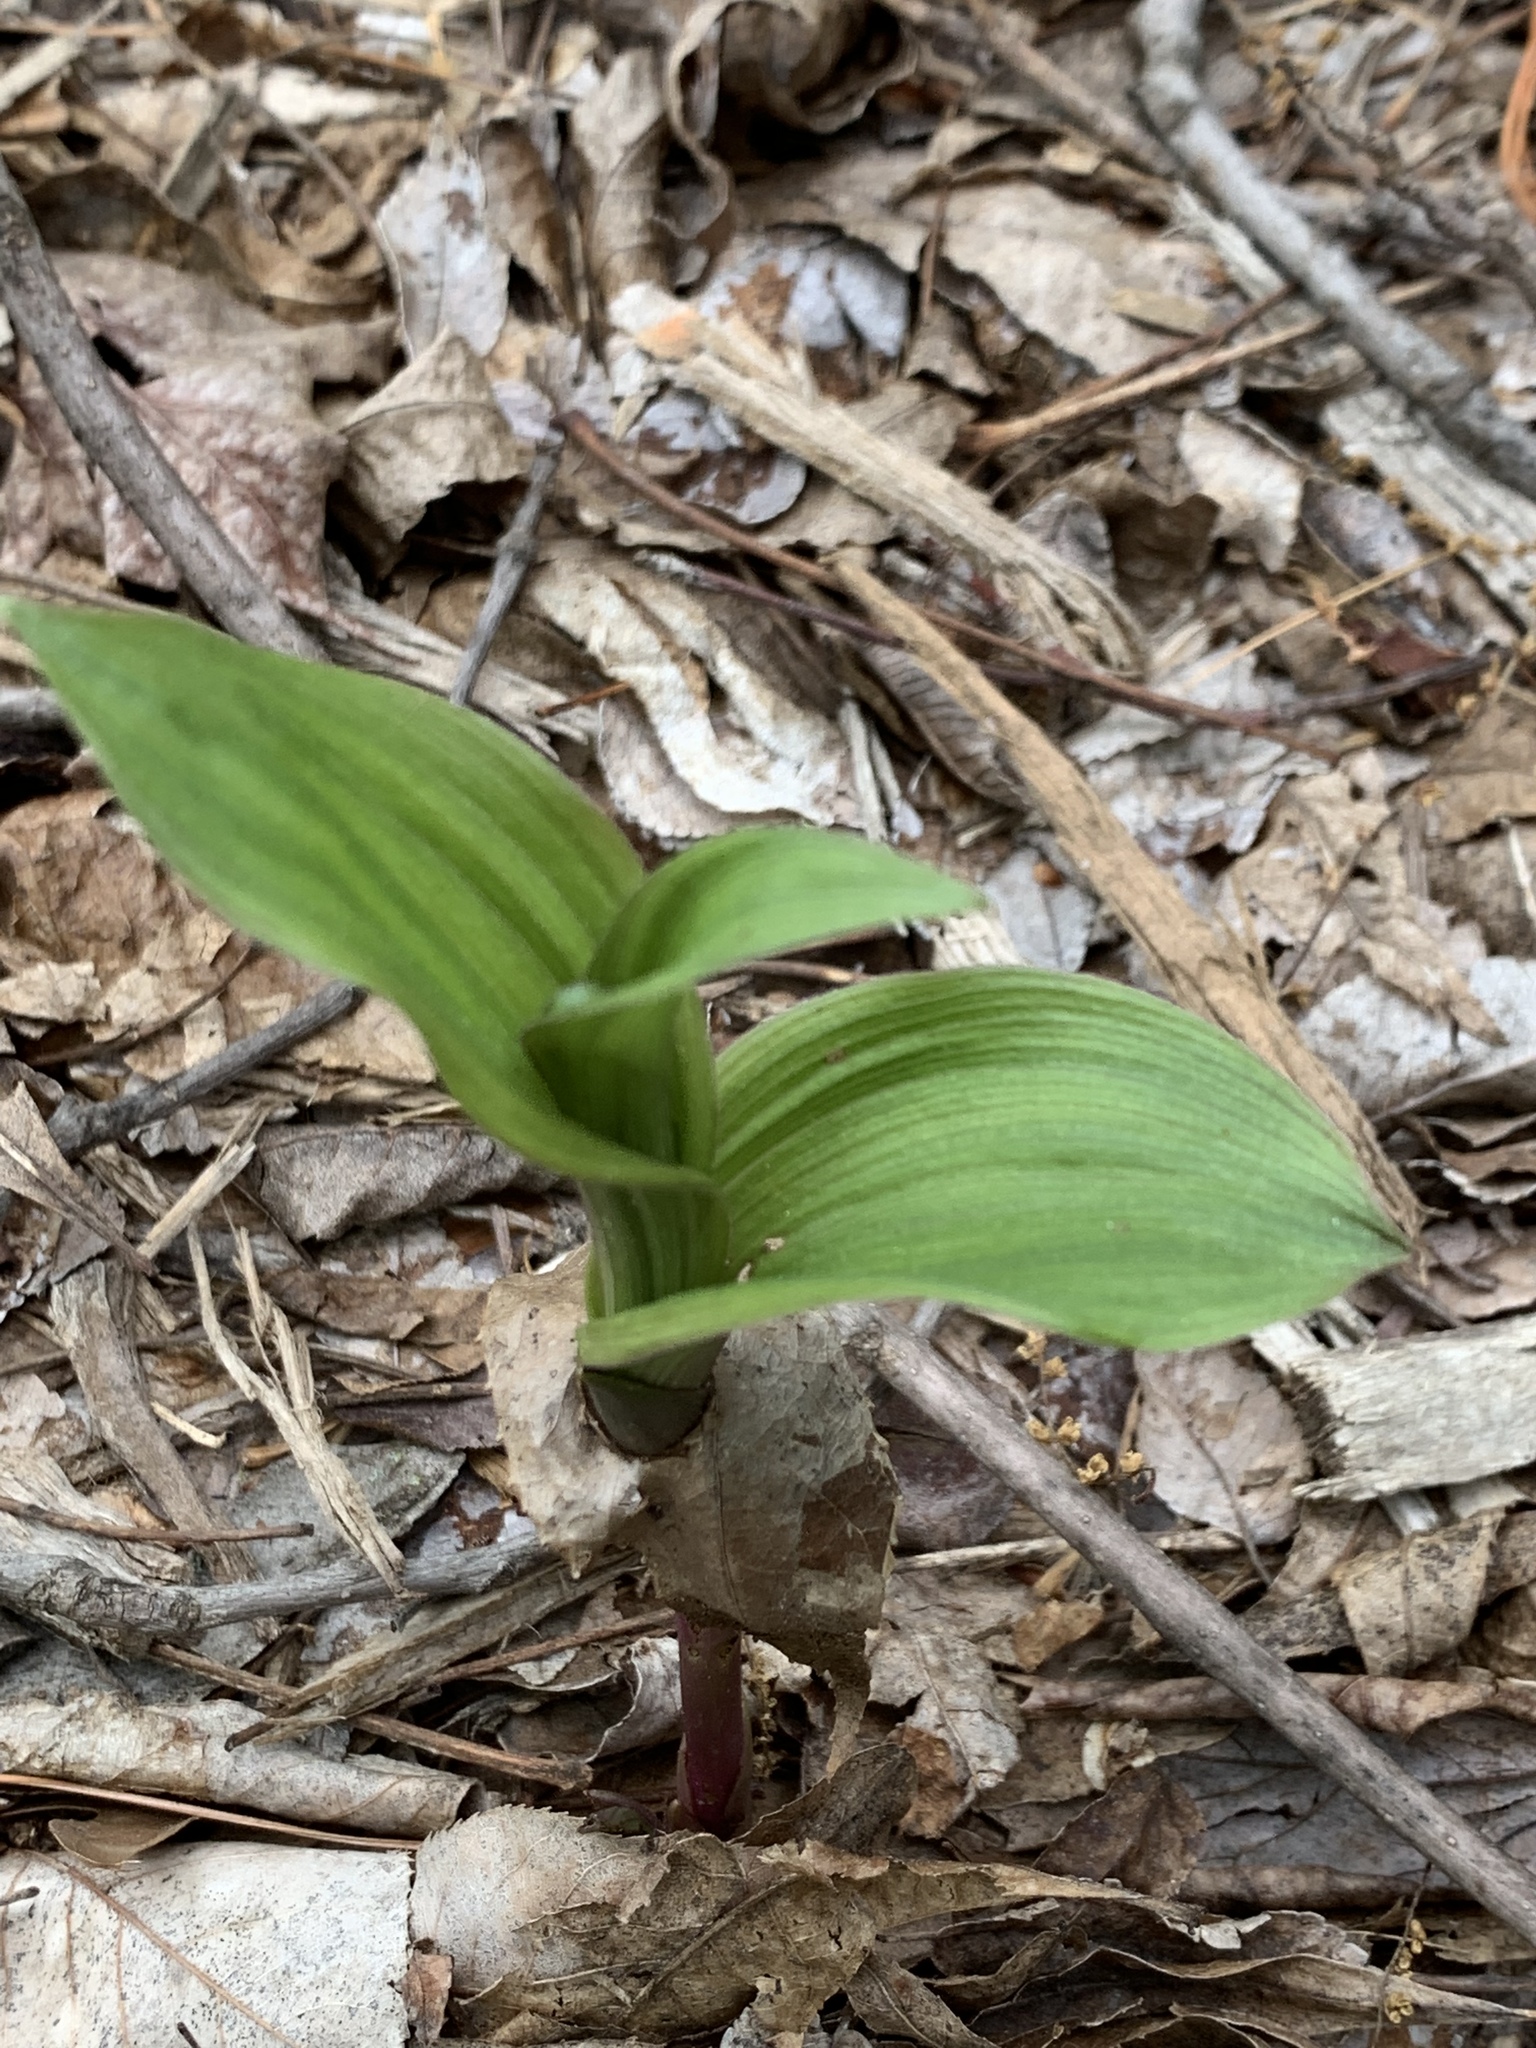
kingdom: Plantae
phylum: Tracheophyta
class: Liliopsida
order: Asparagales
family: Orchidaceae
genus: Epipactis
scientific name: Epipactis helleborine
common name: Broad-leaved helleborine
